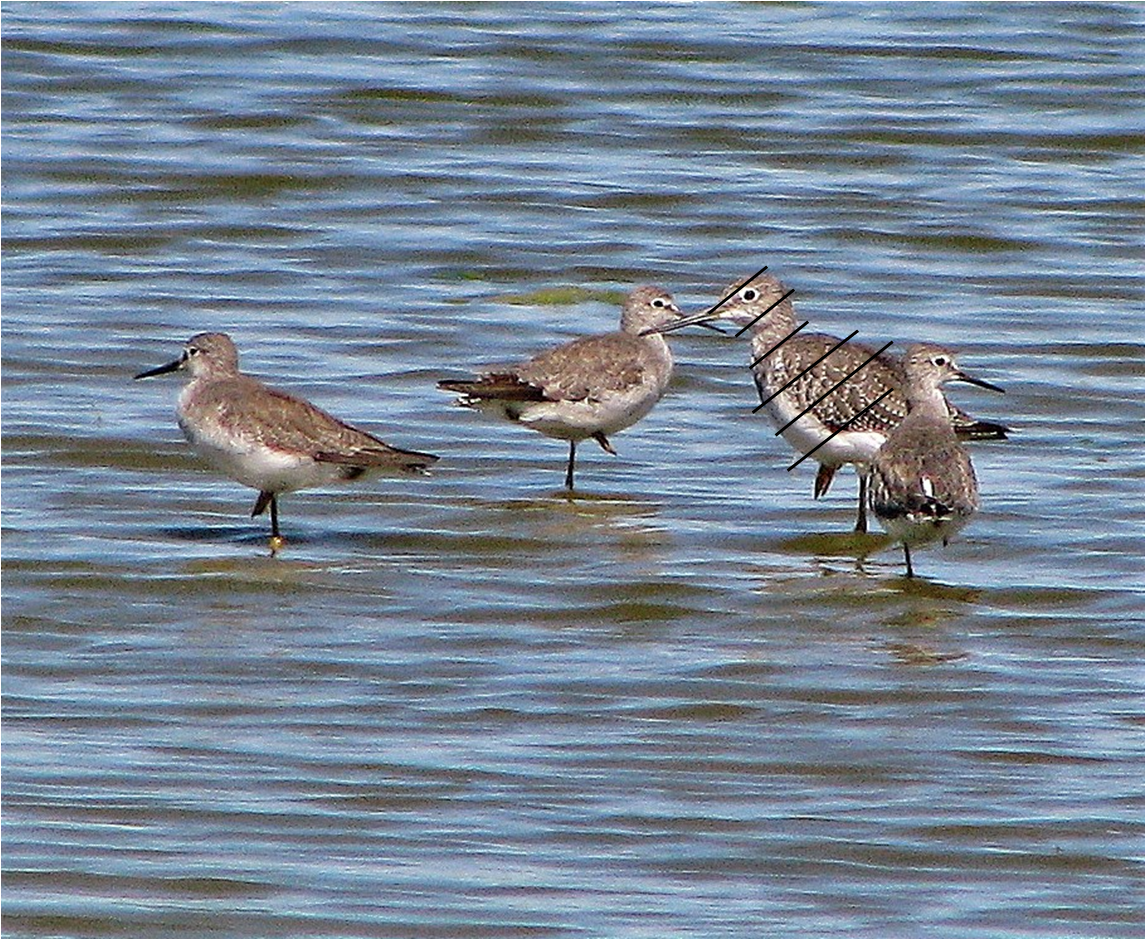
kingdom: Animalia
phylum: Chordata
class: Aves
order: Charadriiformes
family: Scolopacidae
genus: Tringa
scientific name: Tringa flavipes
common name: Lesser yellowlegs
